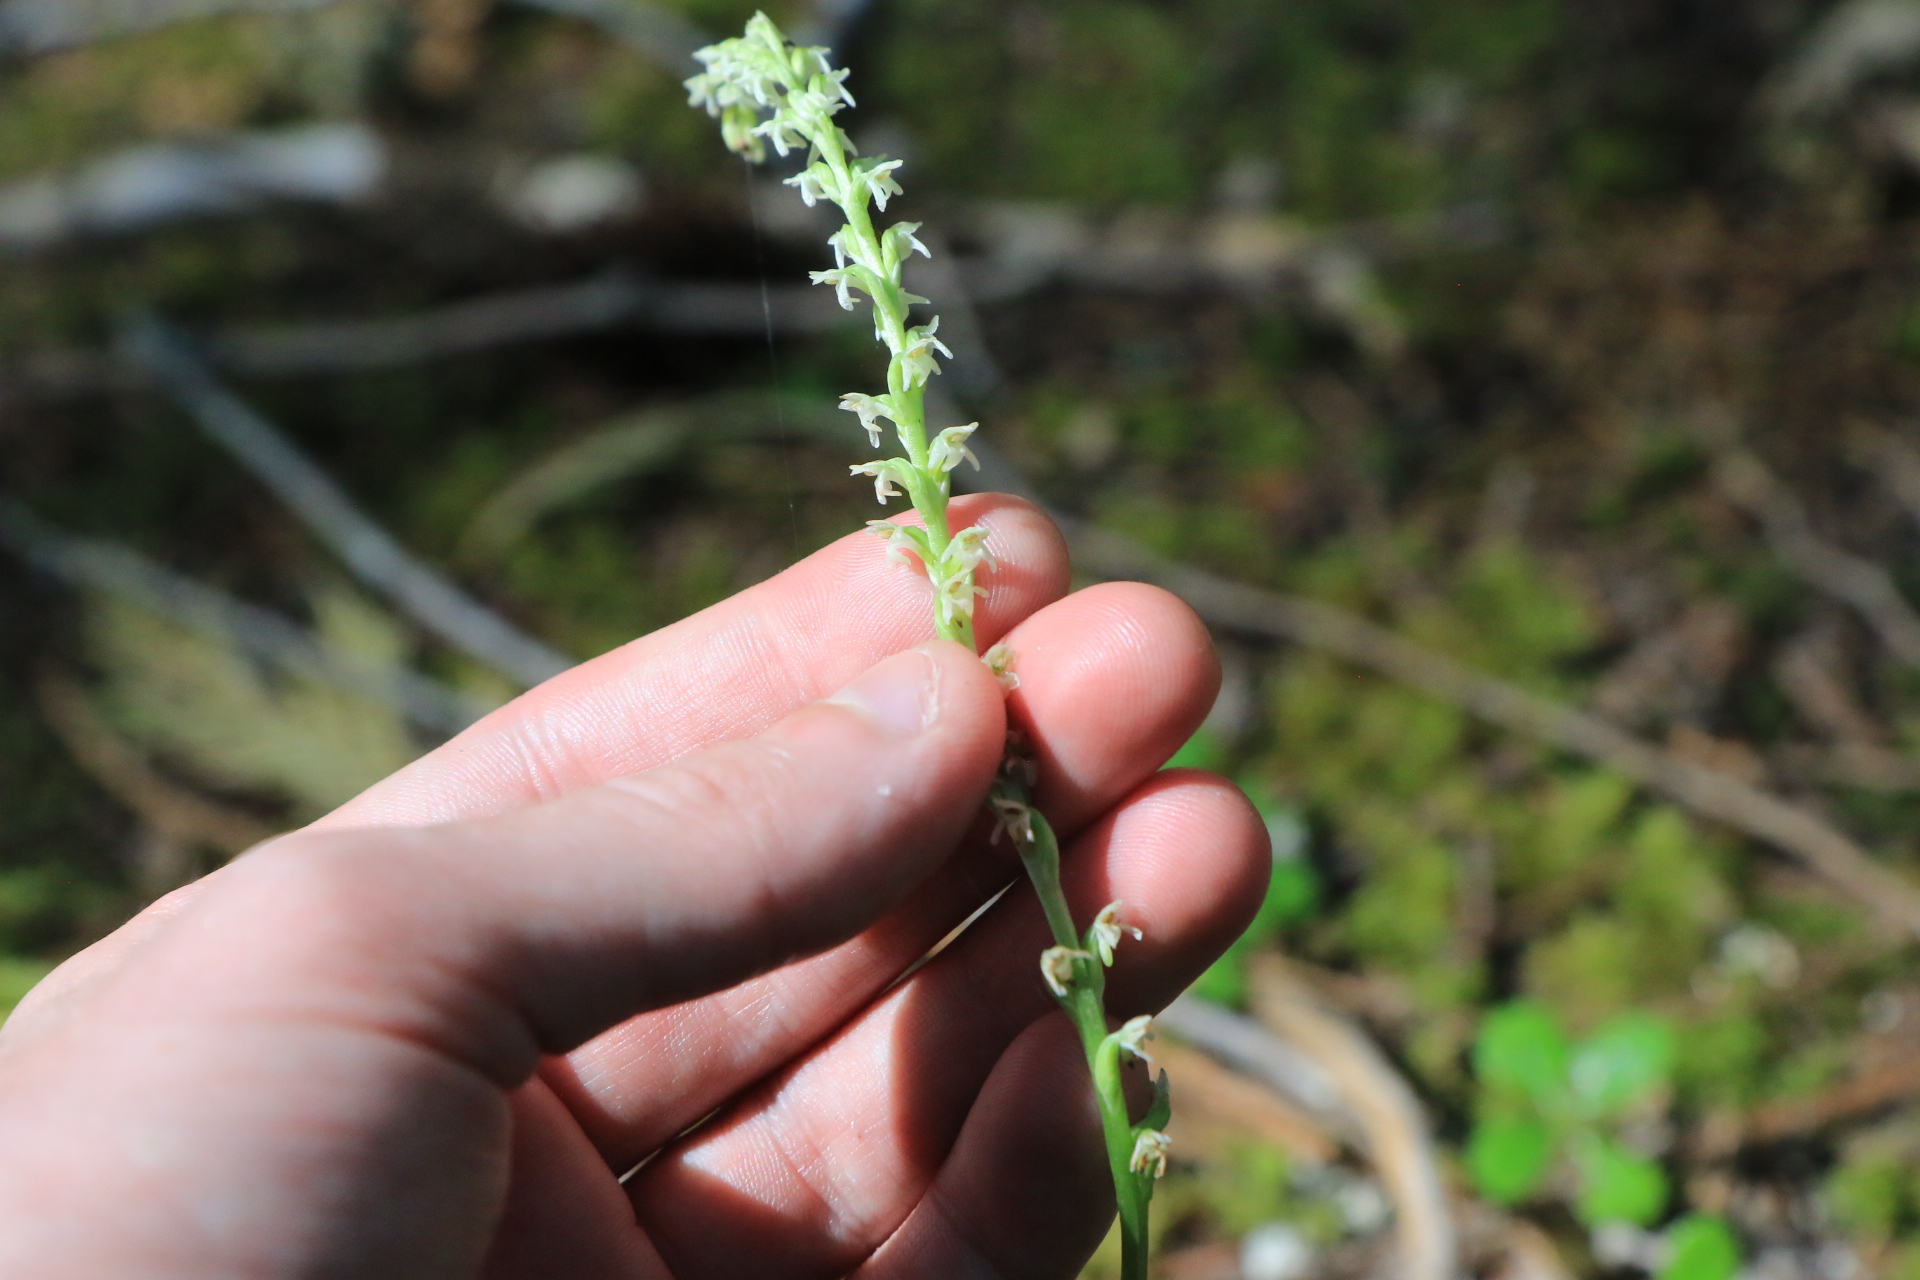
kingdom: Plantae
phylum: Tracheophyta
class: Liliopsida
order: Asparagales
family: Orchidaceae
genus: Platanthera
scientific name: Platanthera ephemerantha
